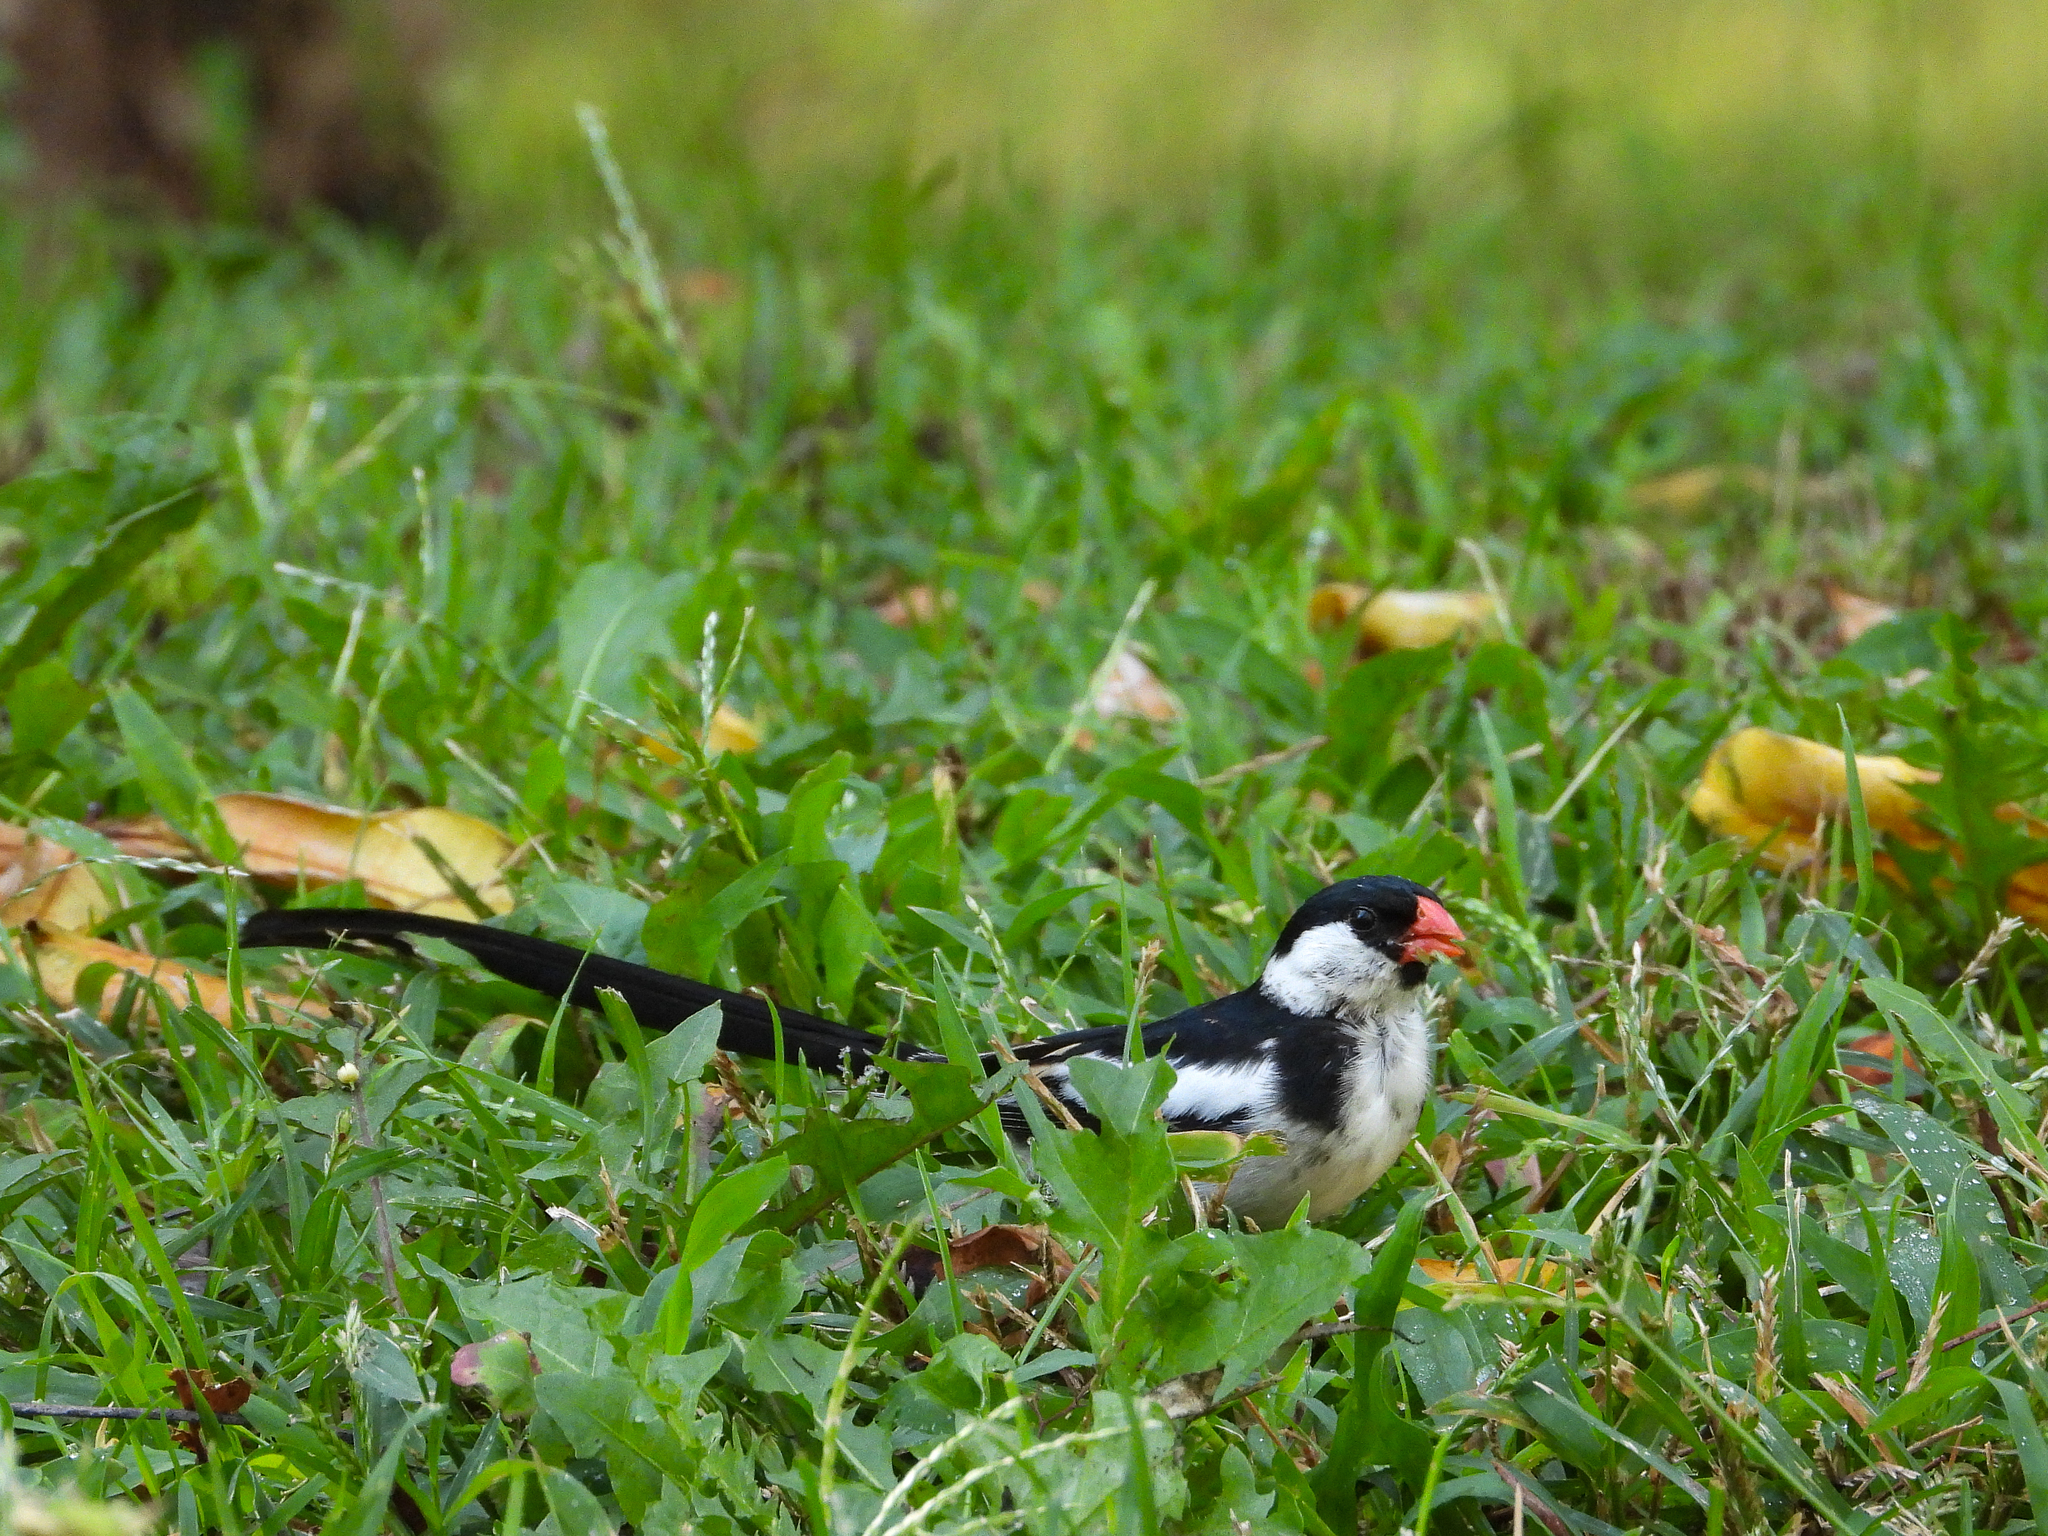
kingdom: Animalia
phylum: Chordata
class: Aves
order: Passeriformes
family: Viduidae
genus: Vidua
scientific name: Vidua macroura
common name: Pin-tailed whydah
